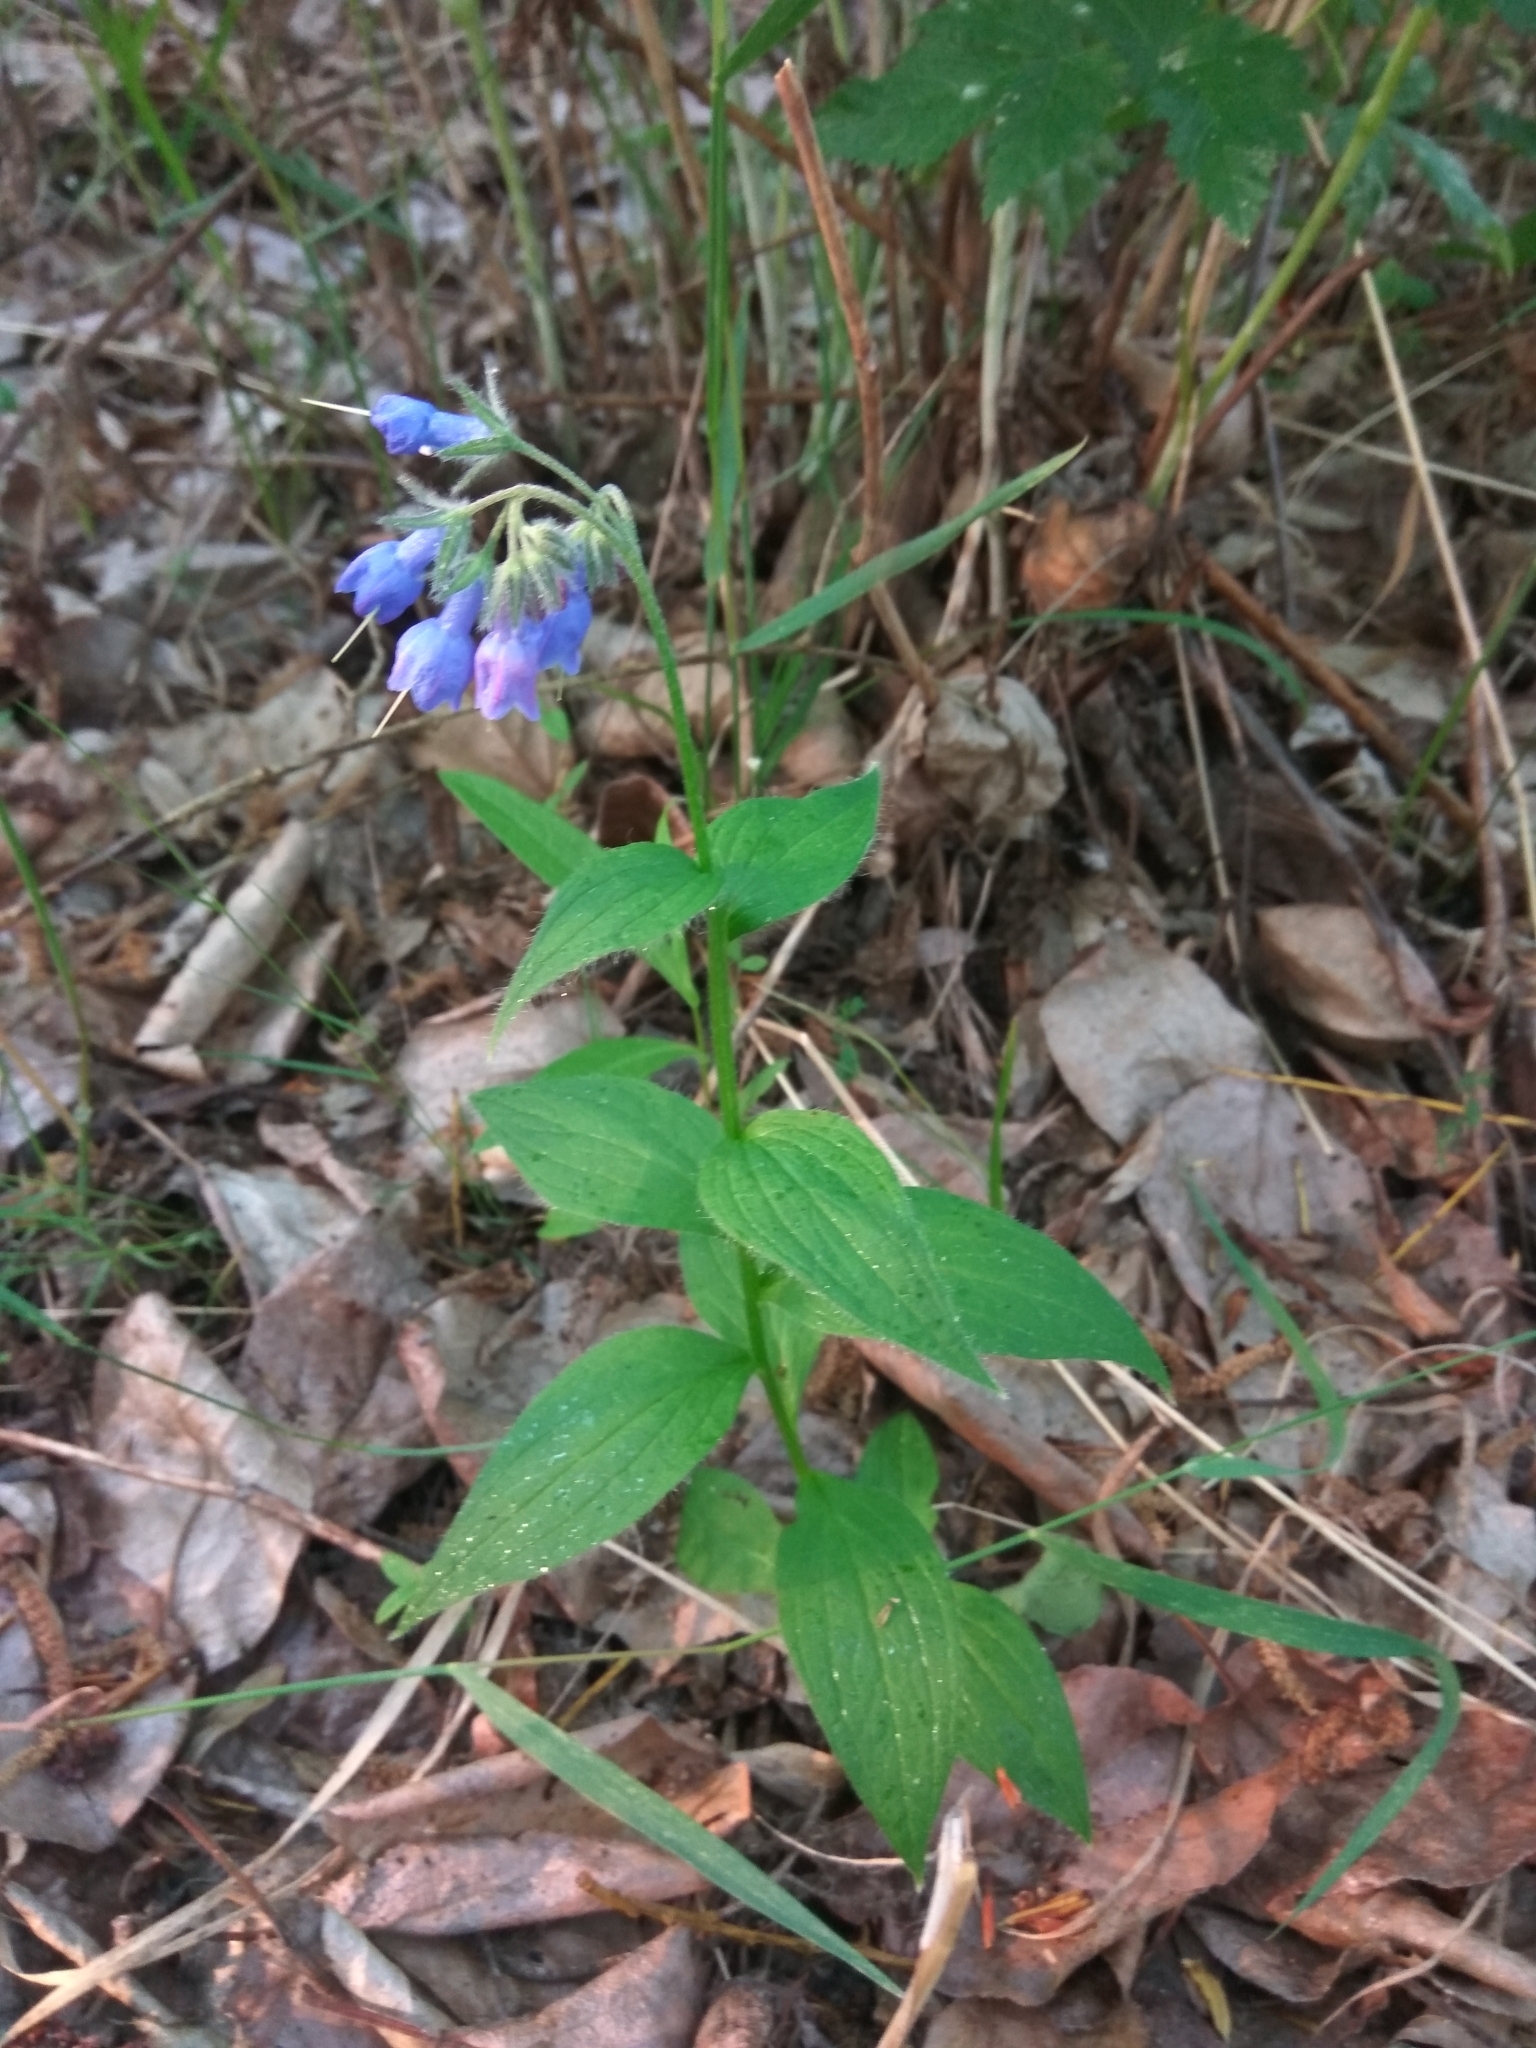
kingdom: Plantae
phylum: Tracheophyta
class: Magnoliopsida
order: Boraginales
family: Boraginaceae
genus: Mertensia
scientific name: Mertensia kamczatica
